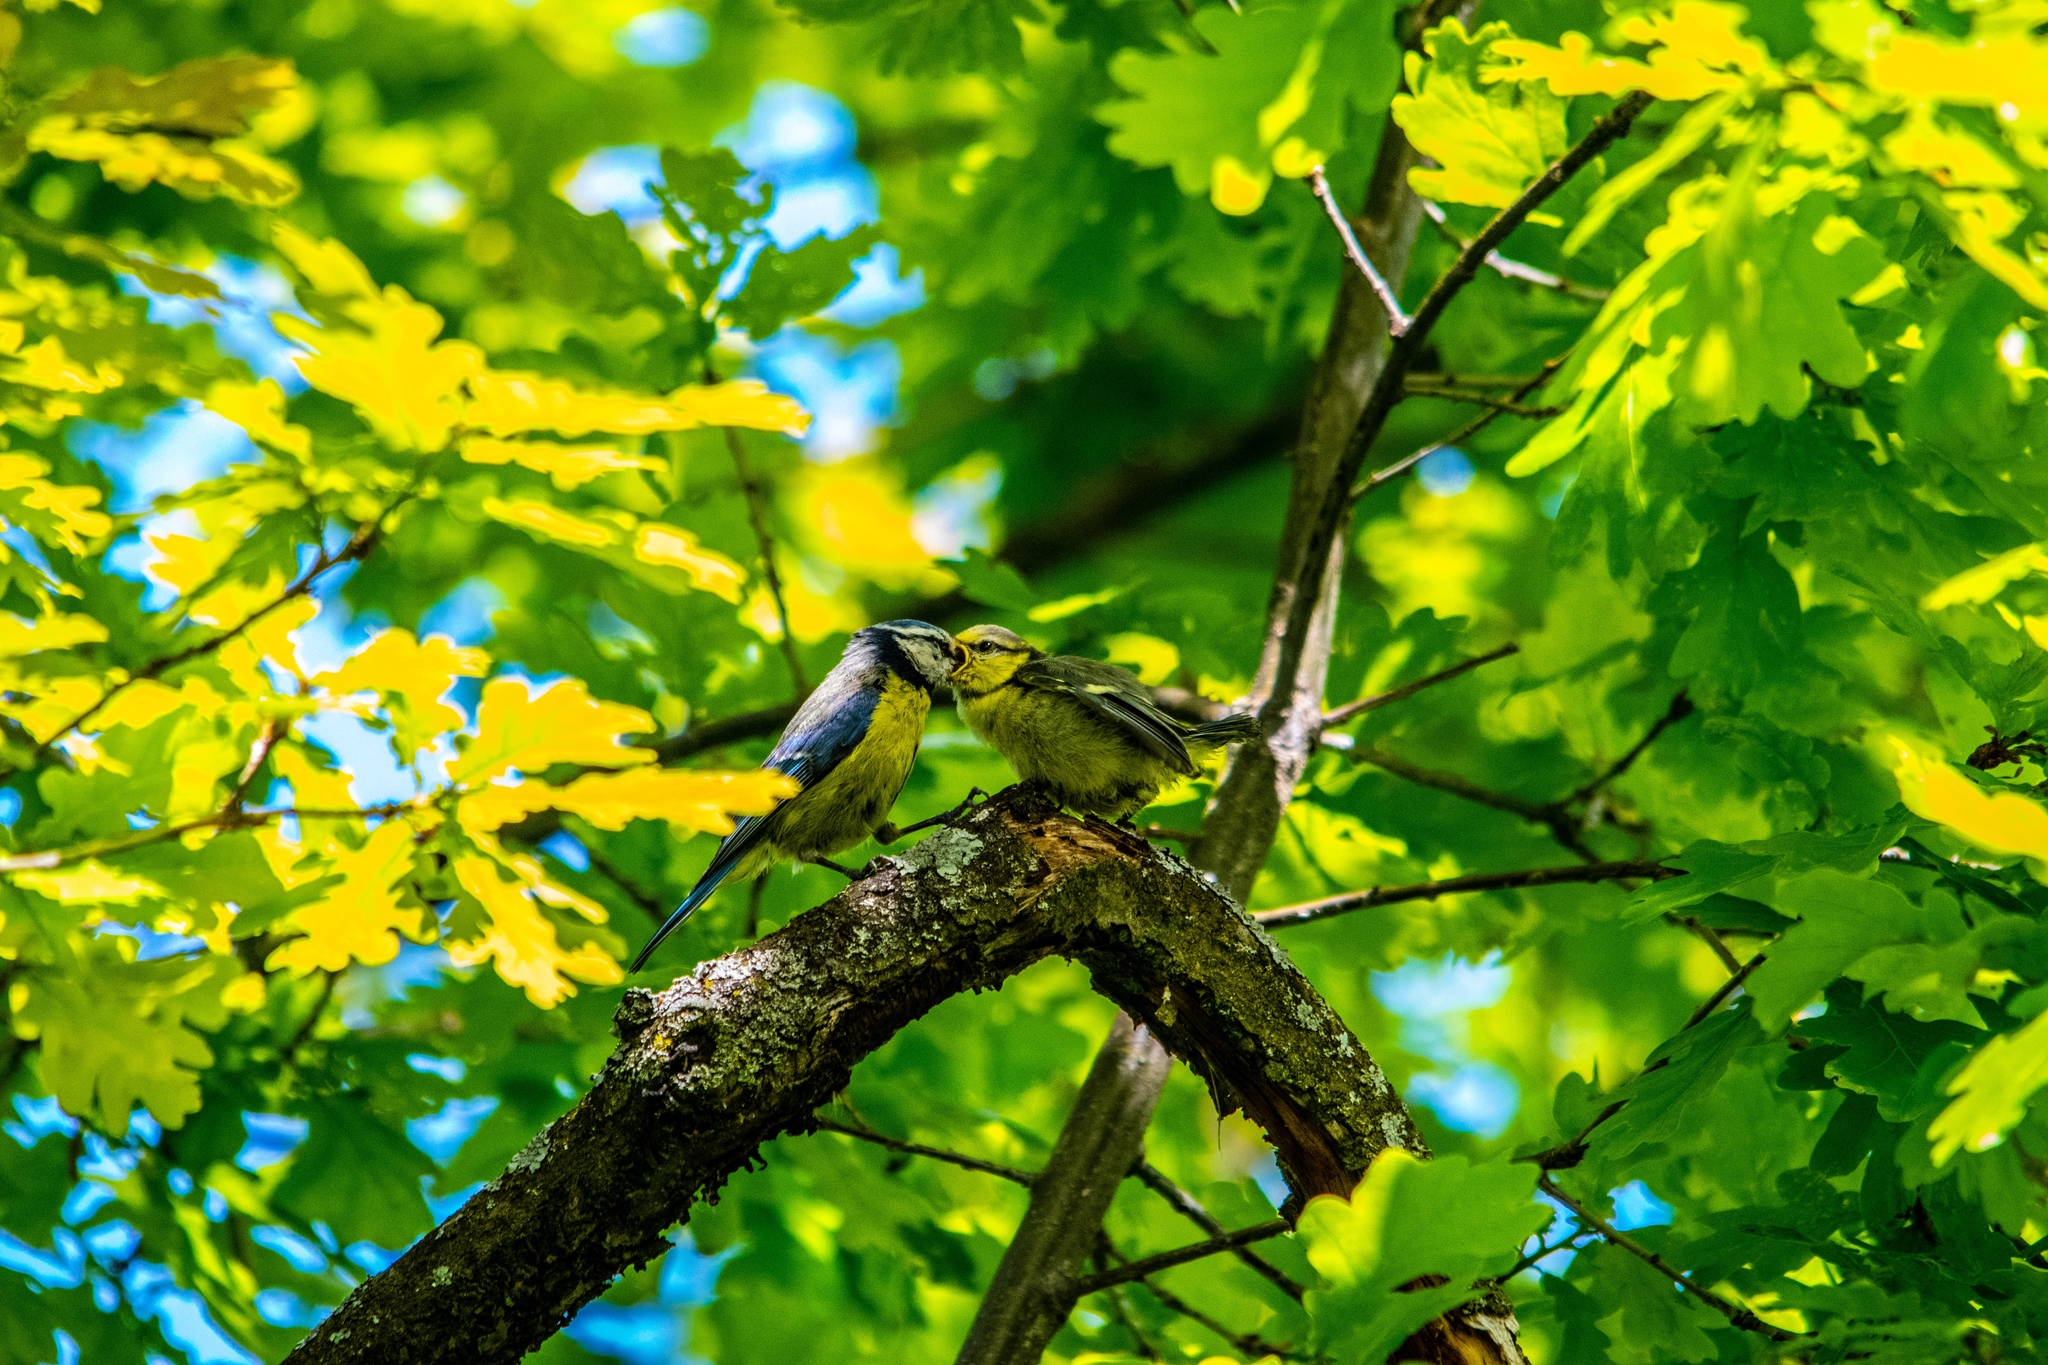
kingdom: Animalia
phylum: Chordata
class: Aves
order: Passeriformes
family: Paridae
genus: Cyanistes
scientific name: Cyanistes caeruleus
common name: Eurasian blue tit
